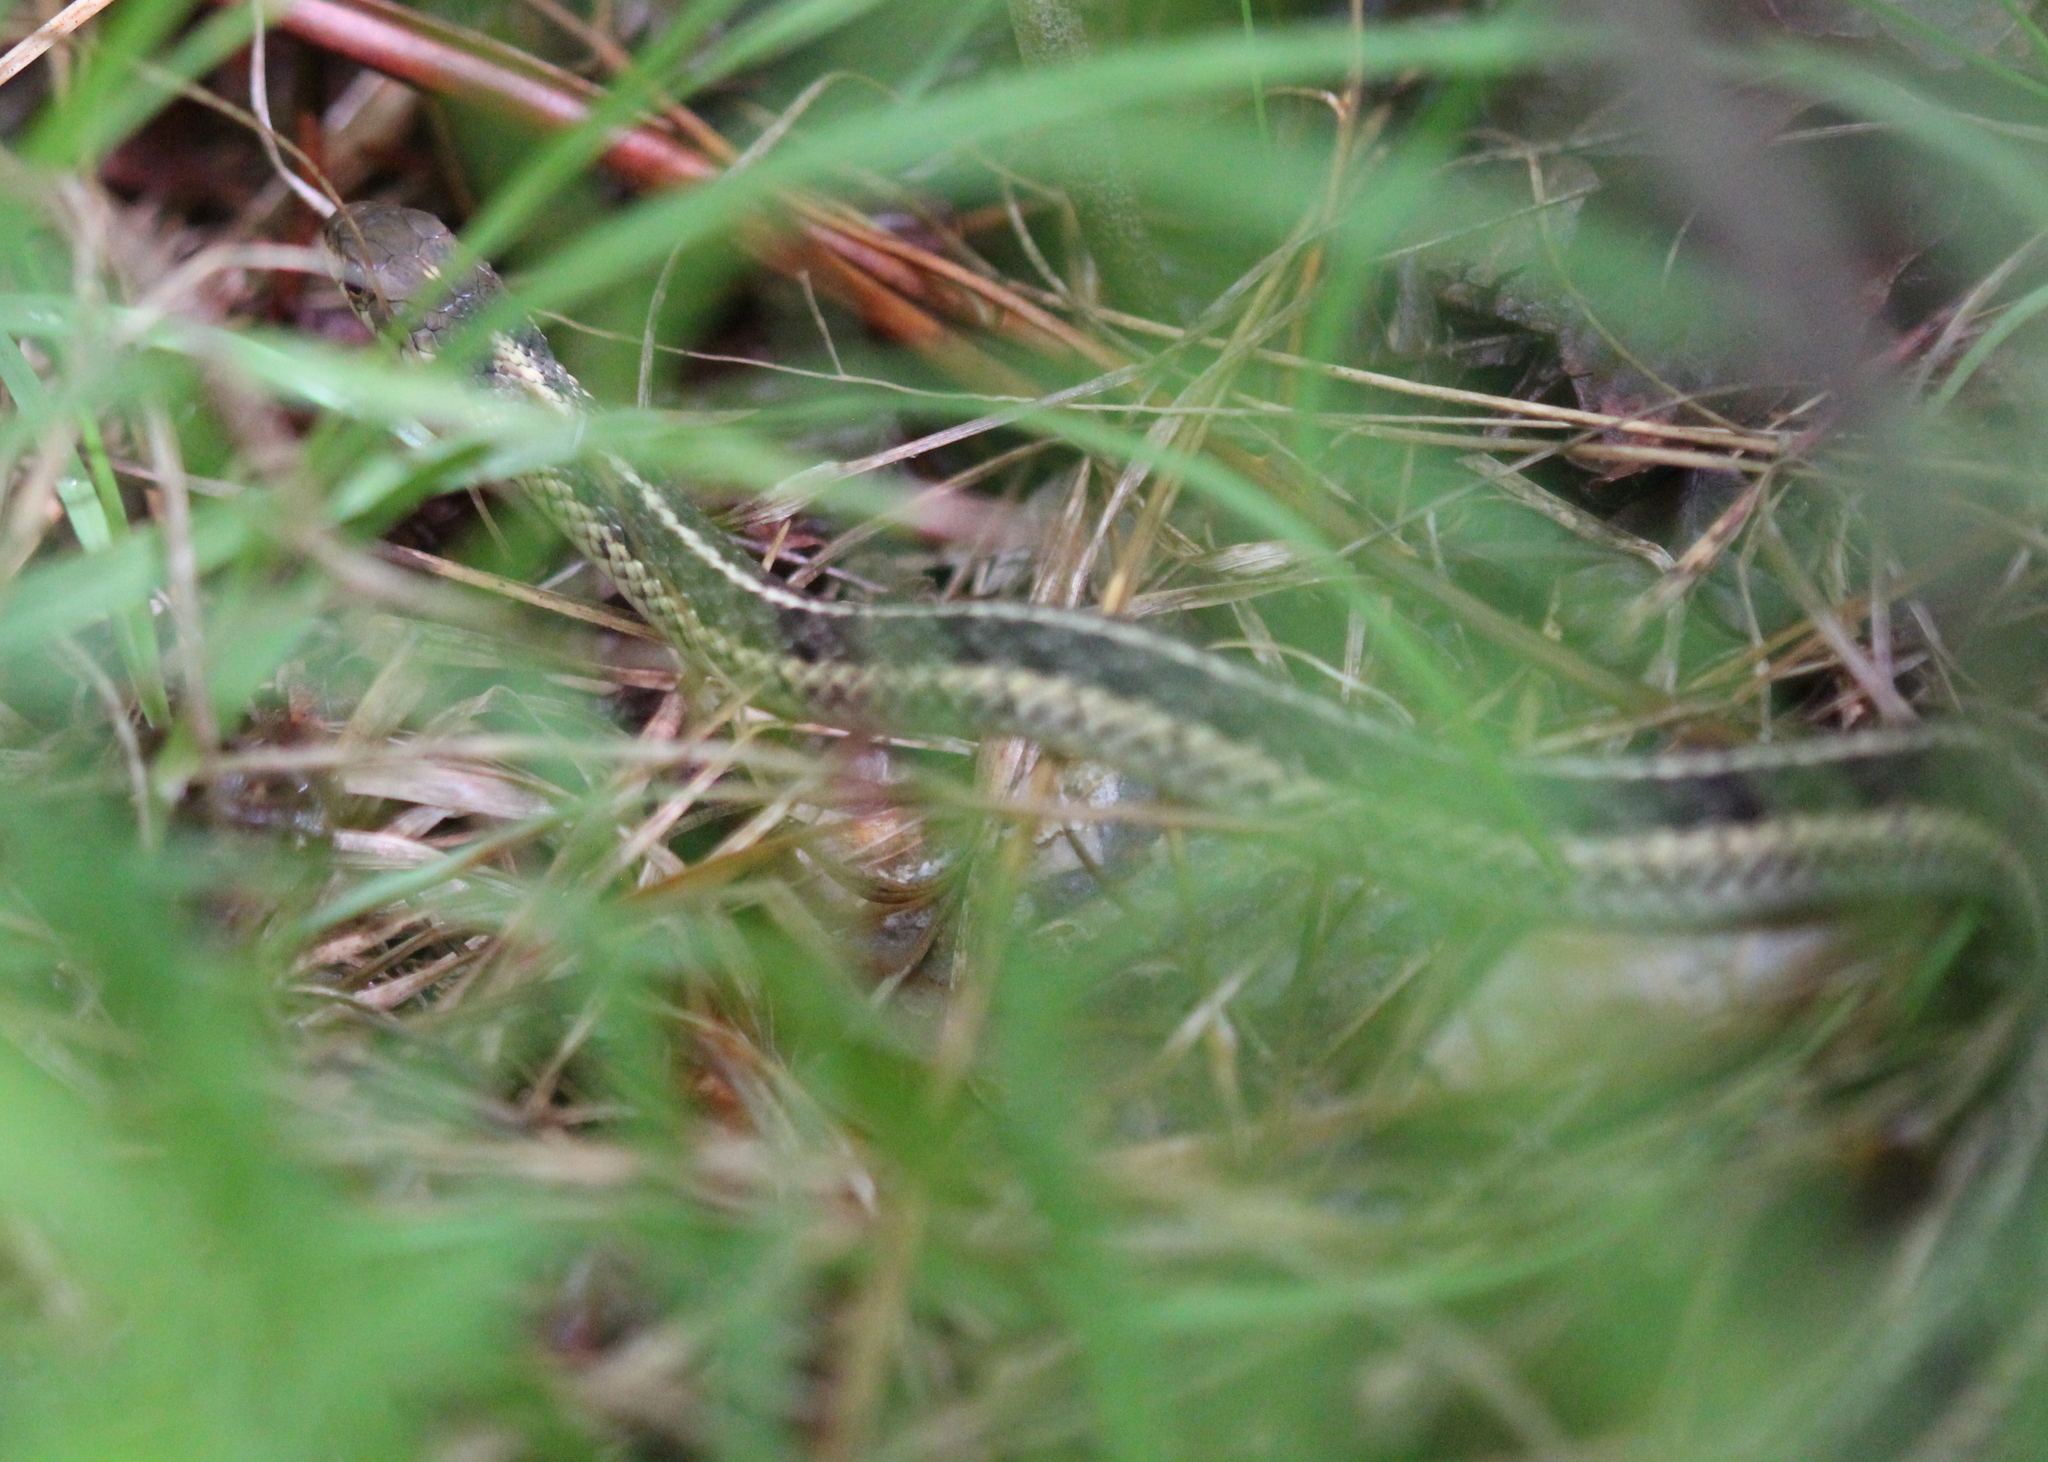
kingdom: Animalia
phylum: Chordata
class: Squamata
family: Colubridae
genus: Thamnophis
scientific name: Thamnophis sirtalis
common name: Common garter snake
